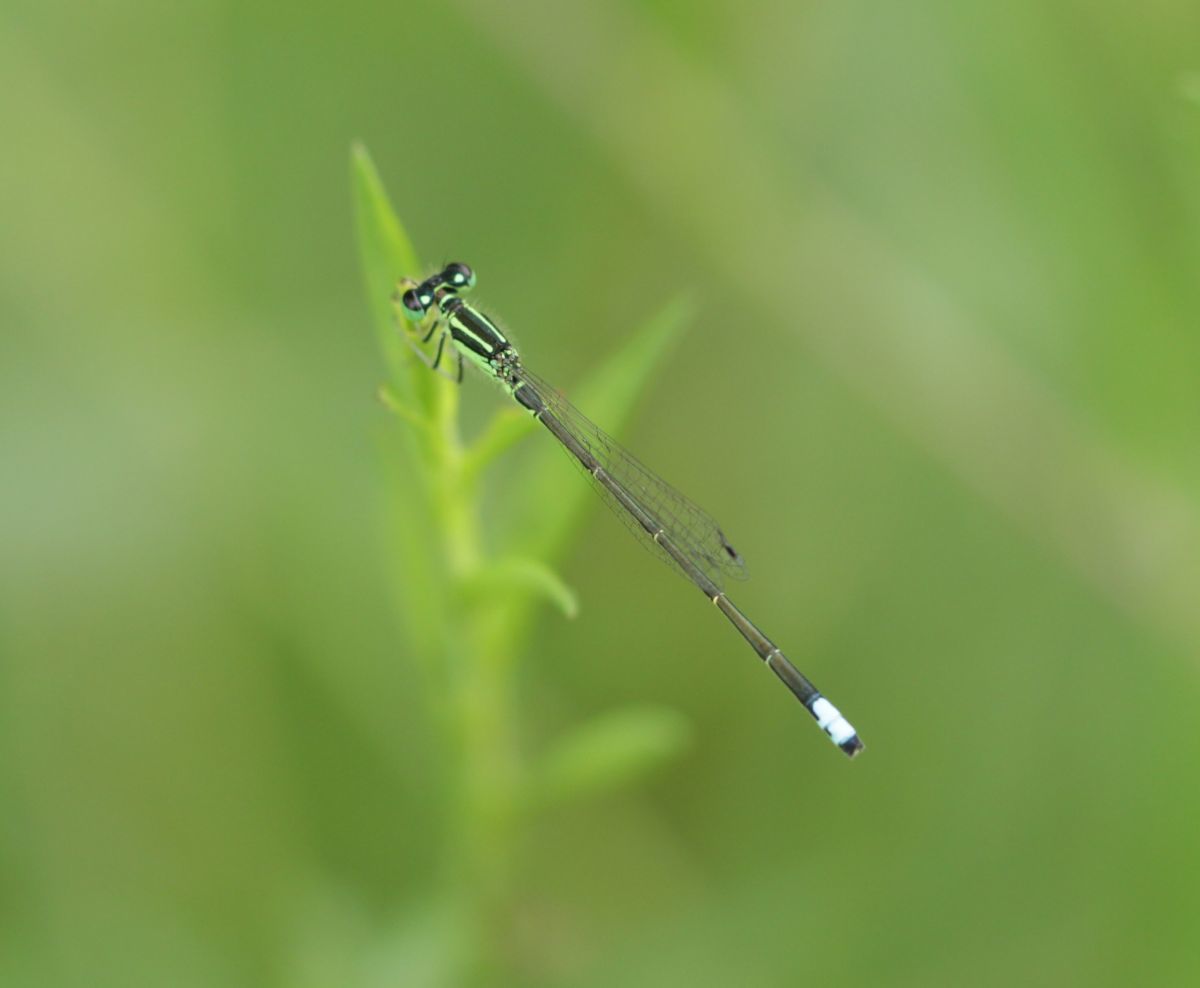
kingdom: Animalia
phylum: Arthropoda
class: Insecta
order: Odonata
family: Coenagrionidae
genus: Ischnura
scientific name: Ischnura verticalis
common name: Eastern forktail
